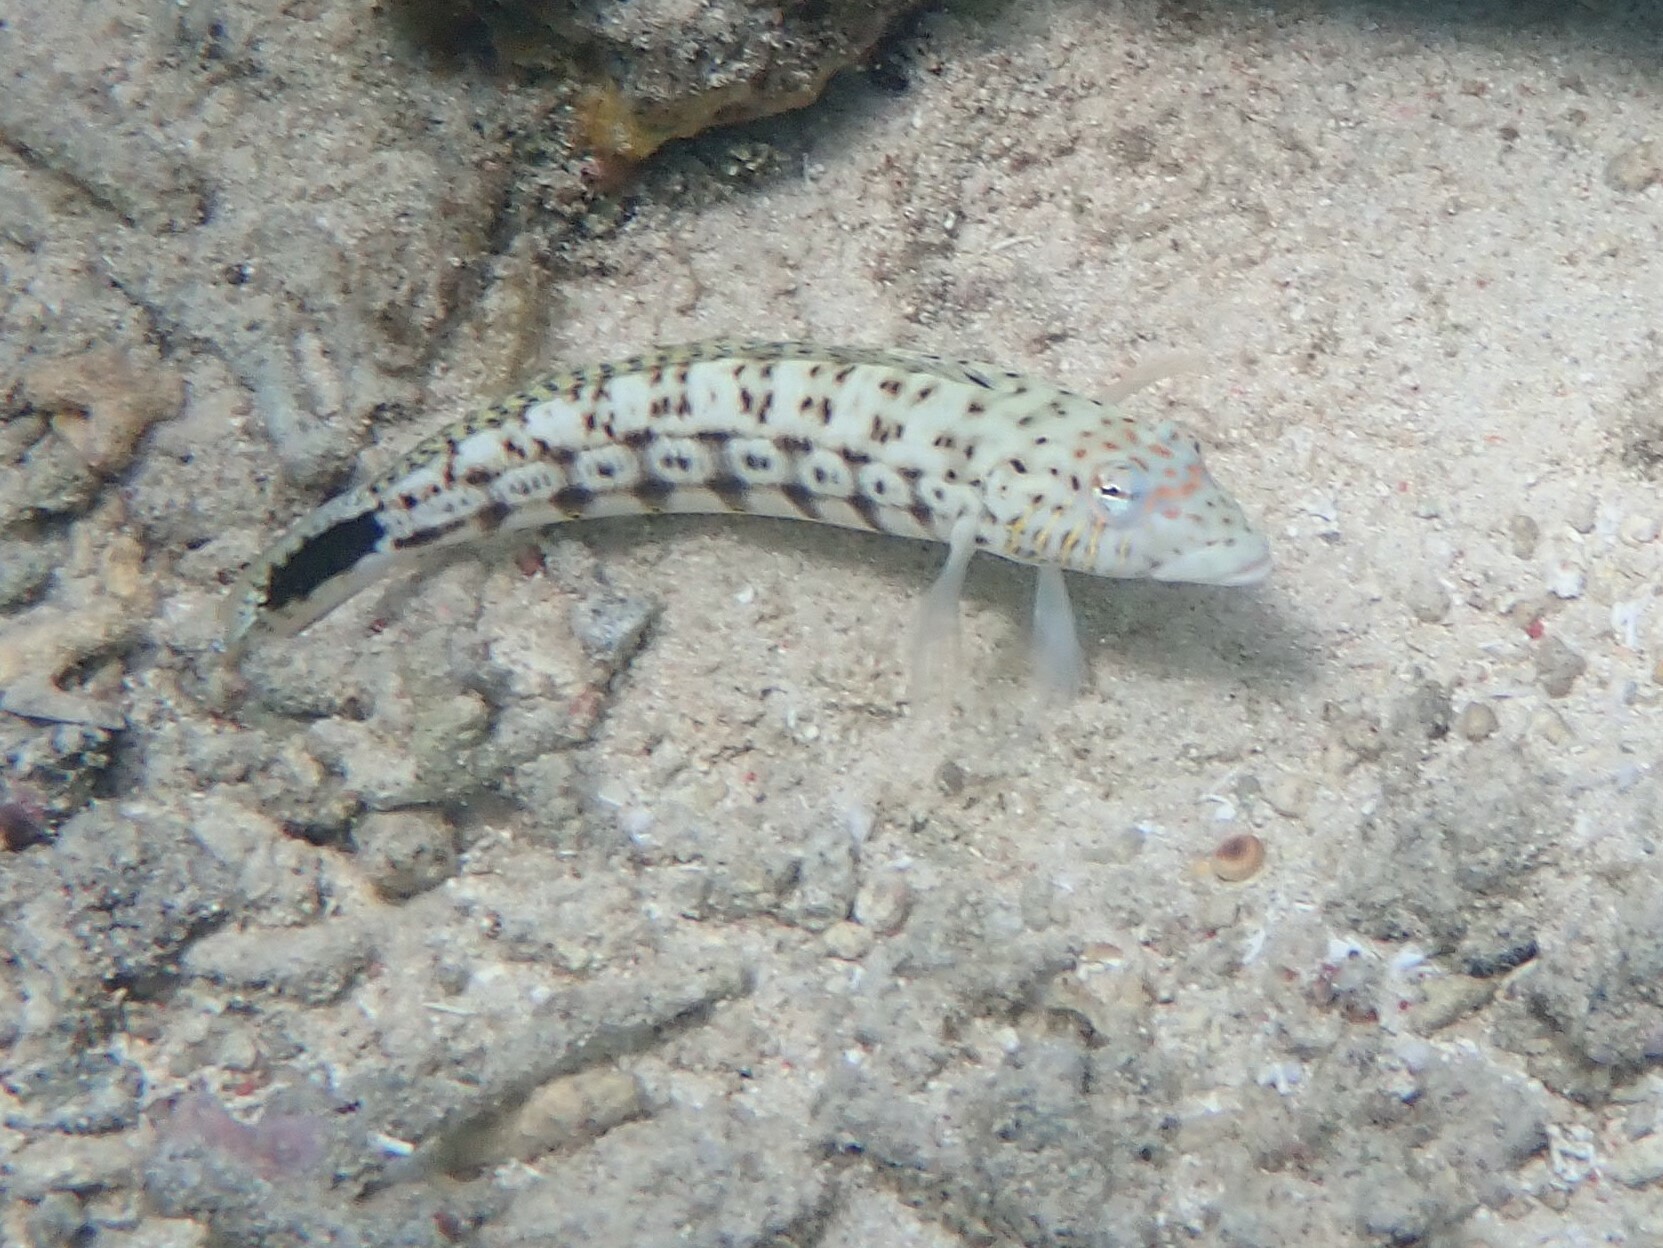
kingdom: Animalia
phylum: Chordata
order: Perciformes
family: Pinguipedidae
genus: Parapercis
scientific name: Parapercis xanthogramma
